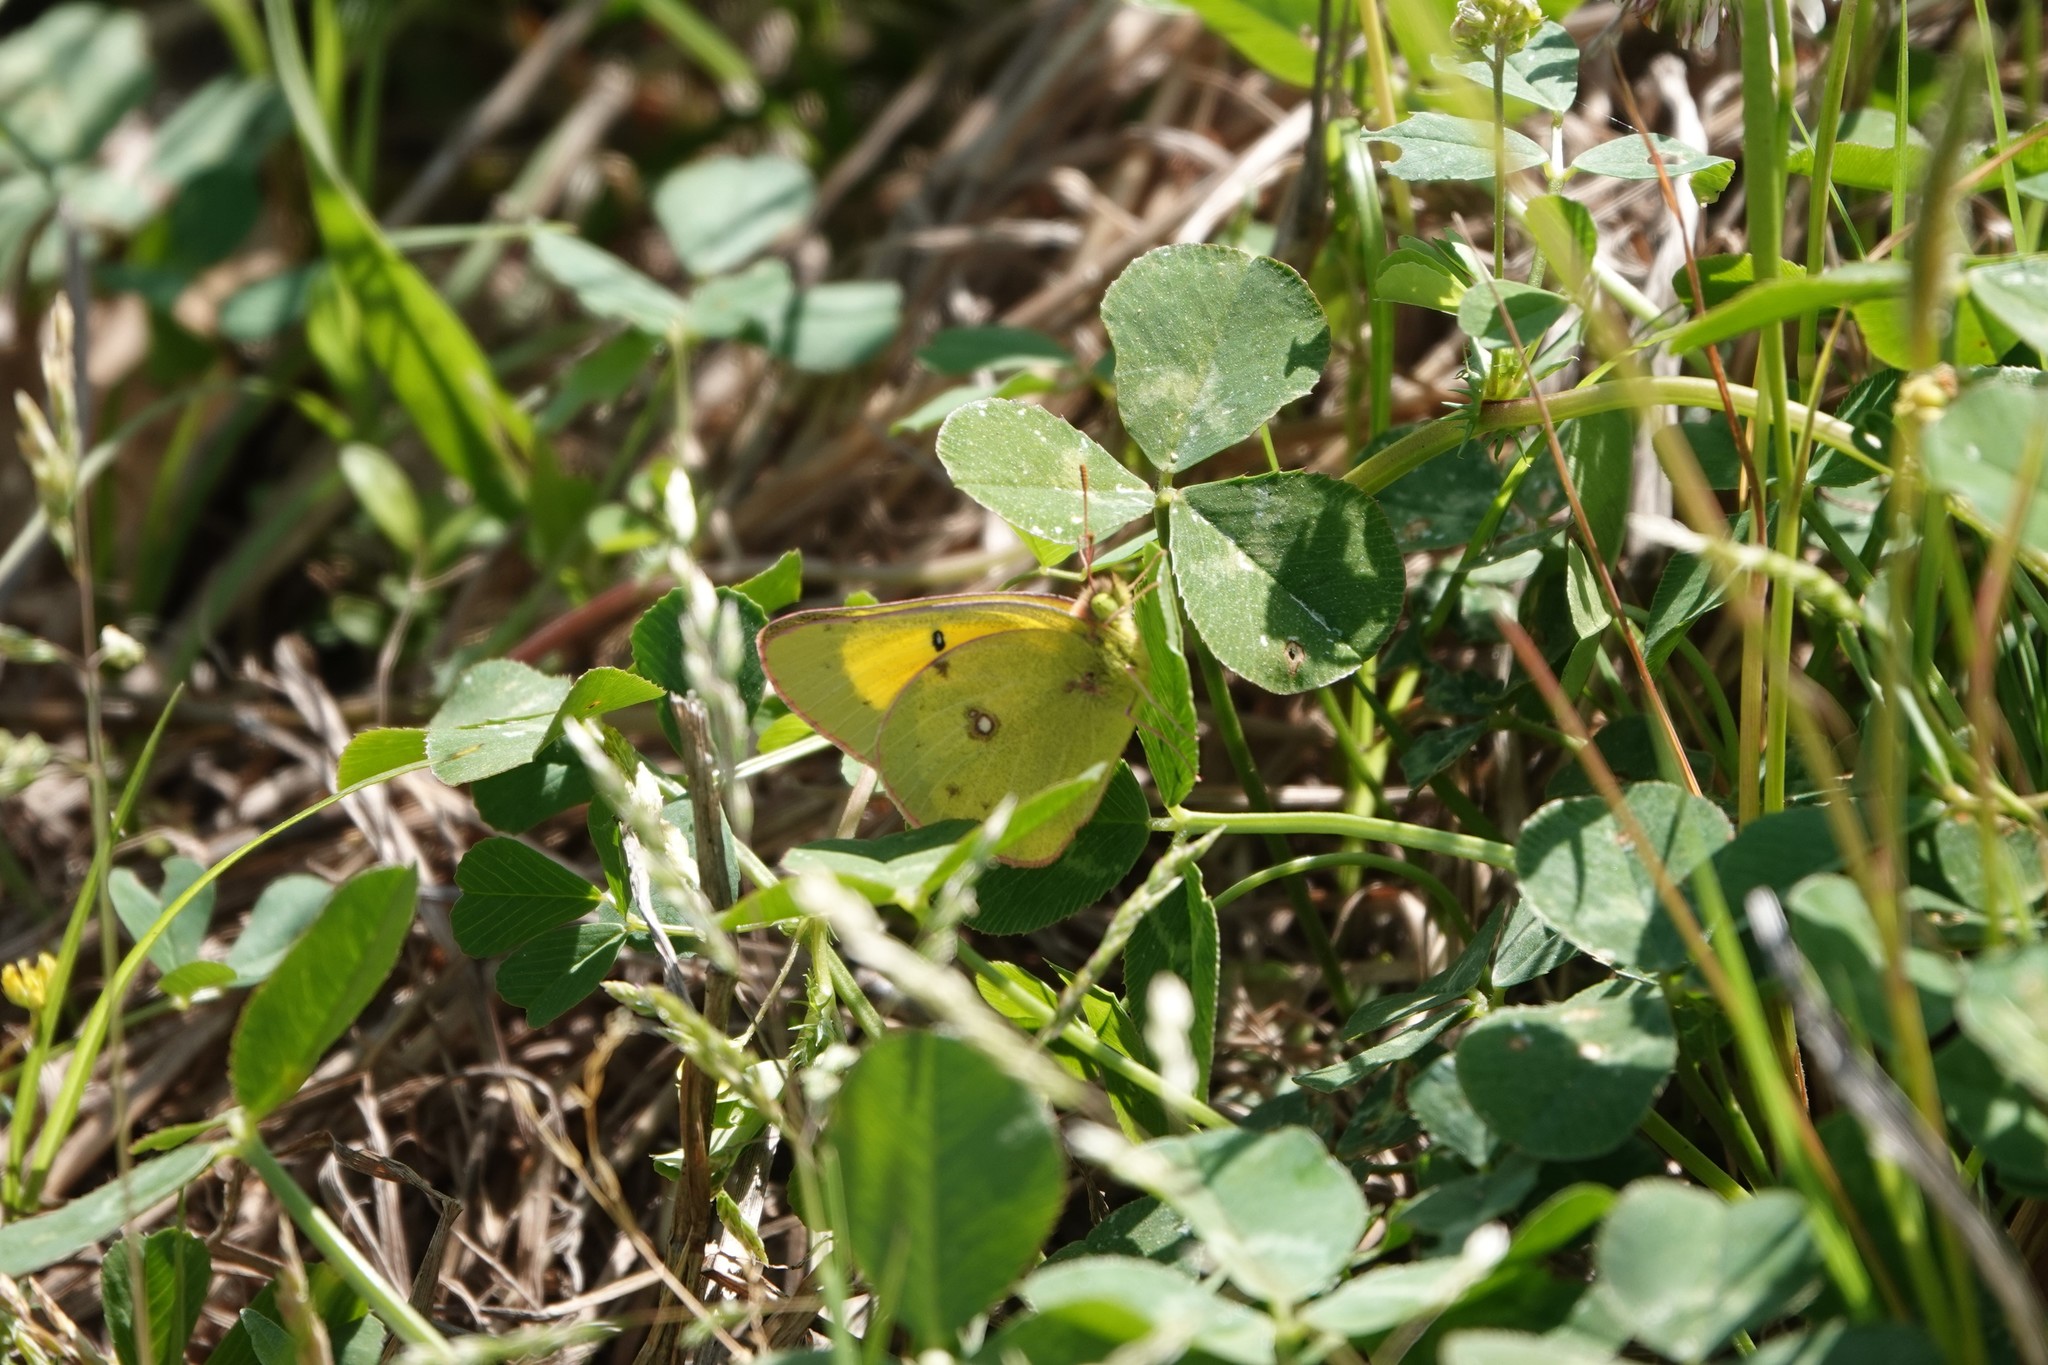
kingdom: Animalia
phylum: Arthropoda
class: Insecta
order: Lepidoptera
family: Pieridae
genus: Colias
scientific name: Colias eurytheme
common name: Alfalfa butterfly
